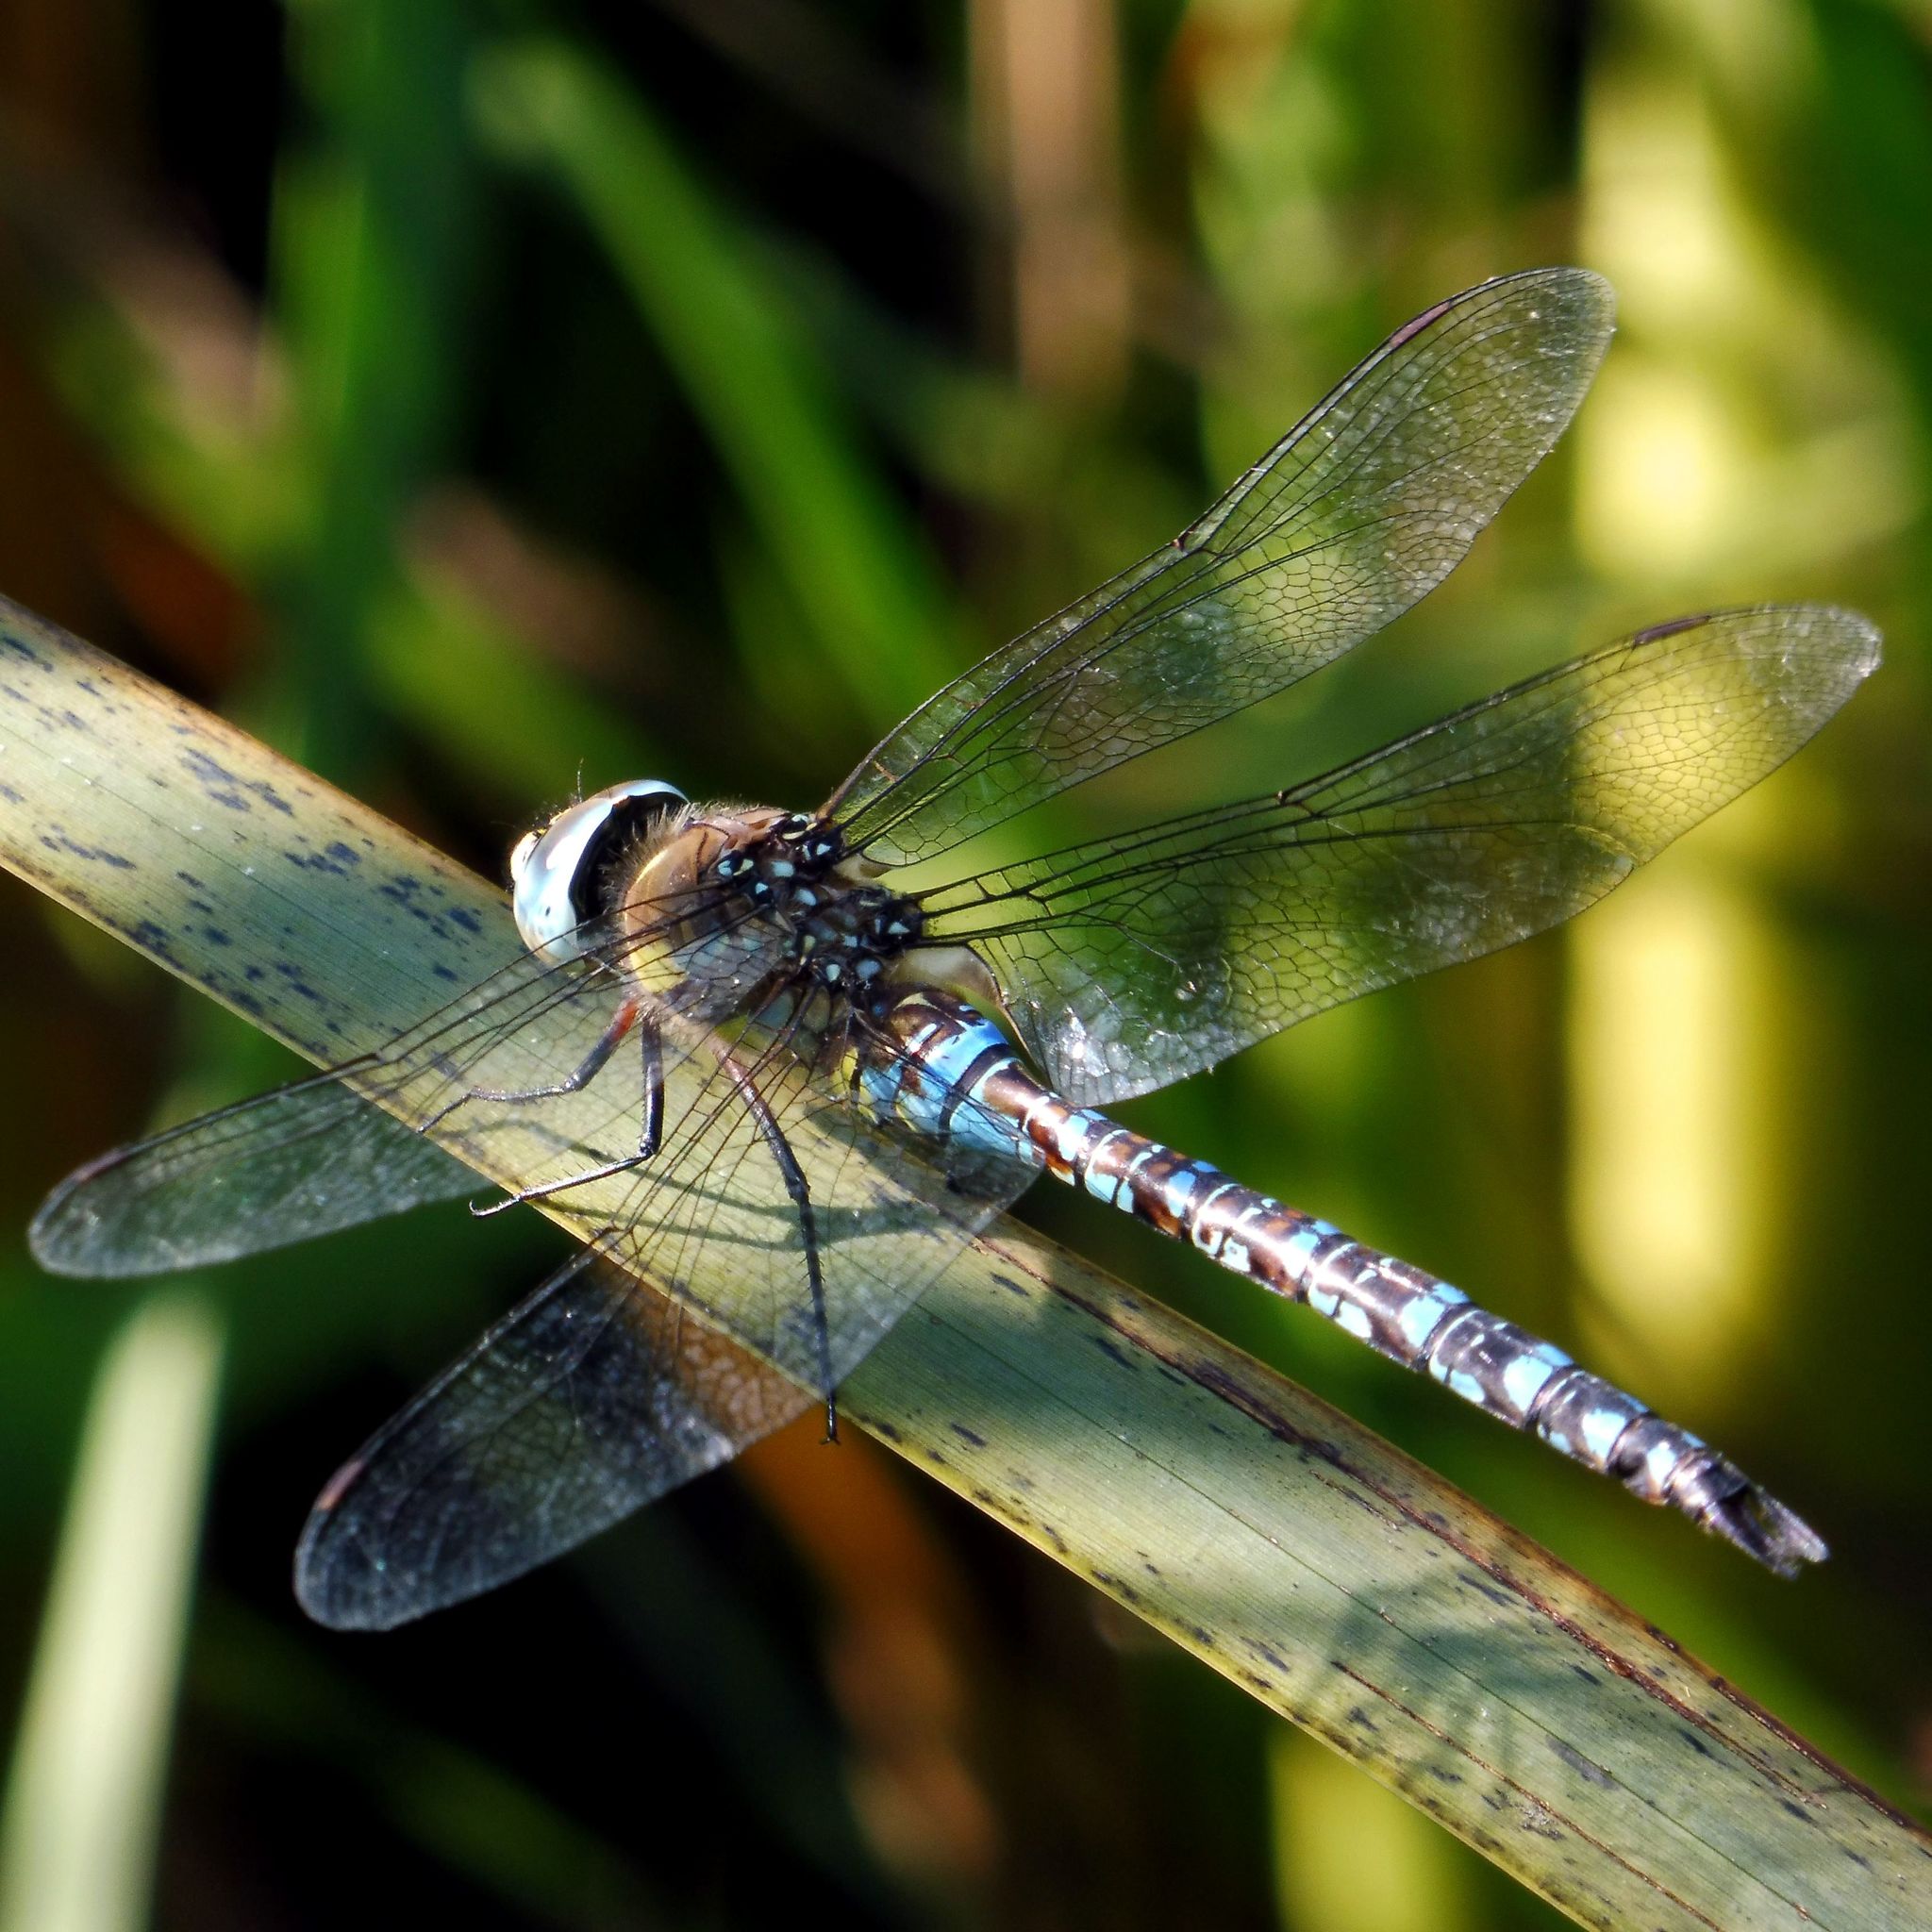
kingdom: Animalia
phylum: Arthropoda
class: Insecta
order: Odonata
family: Aeshnidae
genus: Aeshna
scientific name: Aeshna mixta
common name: Migrant hawker
